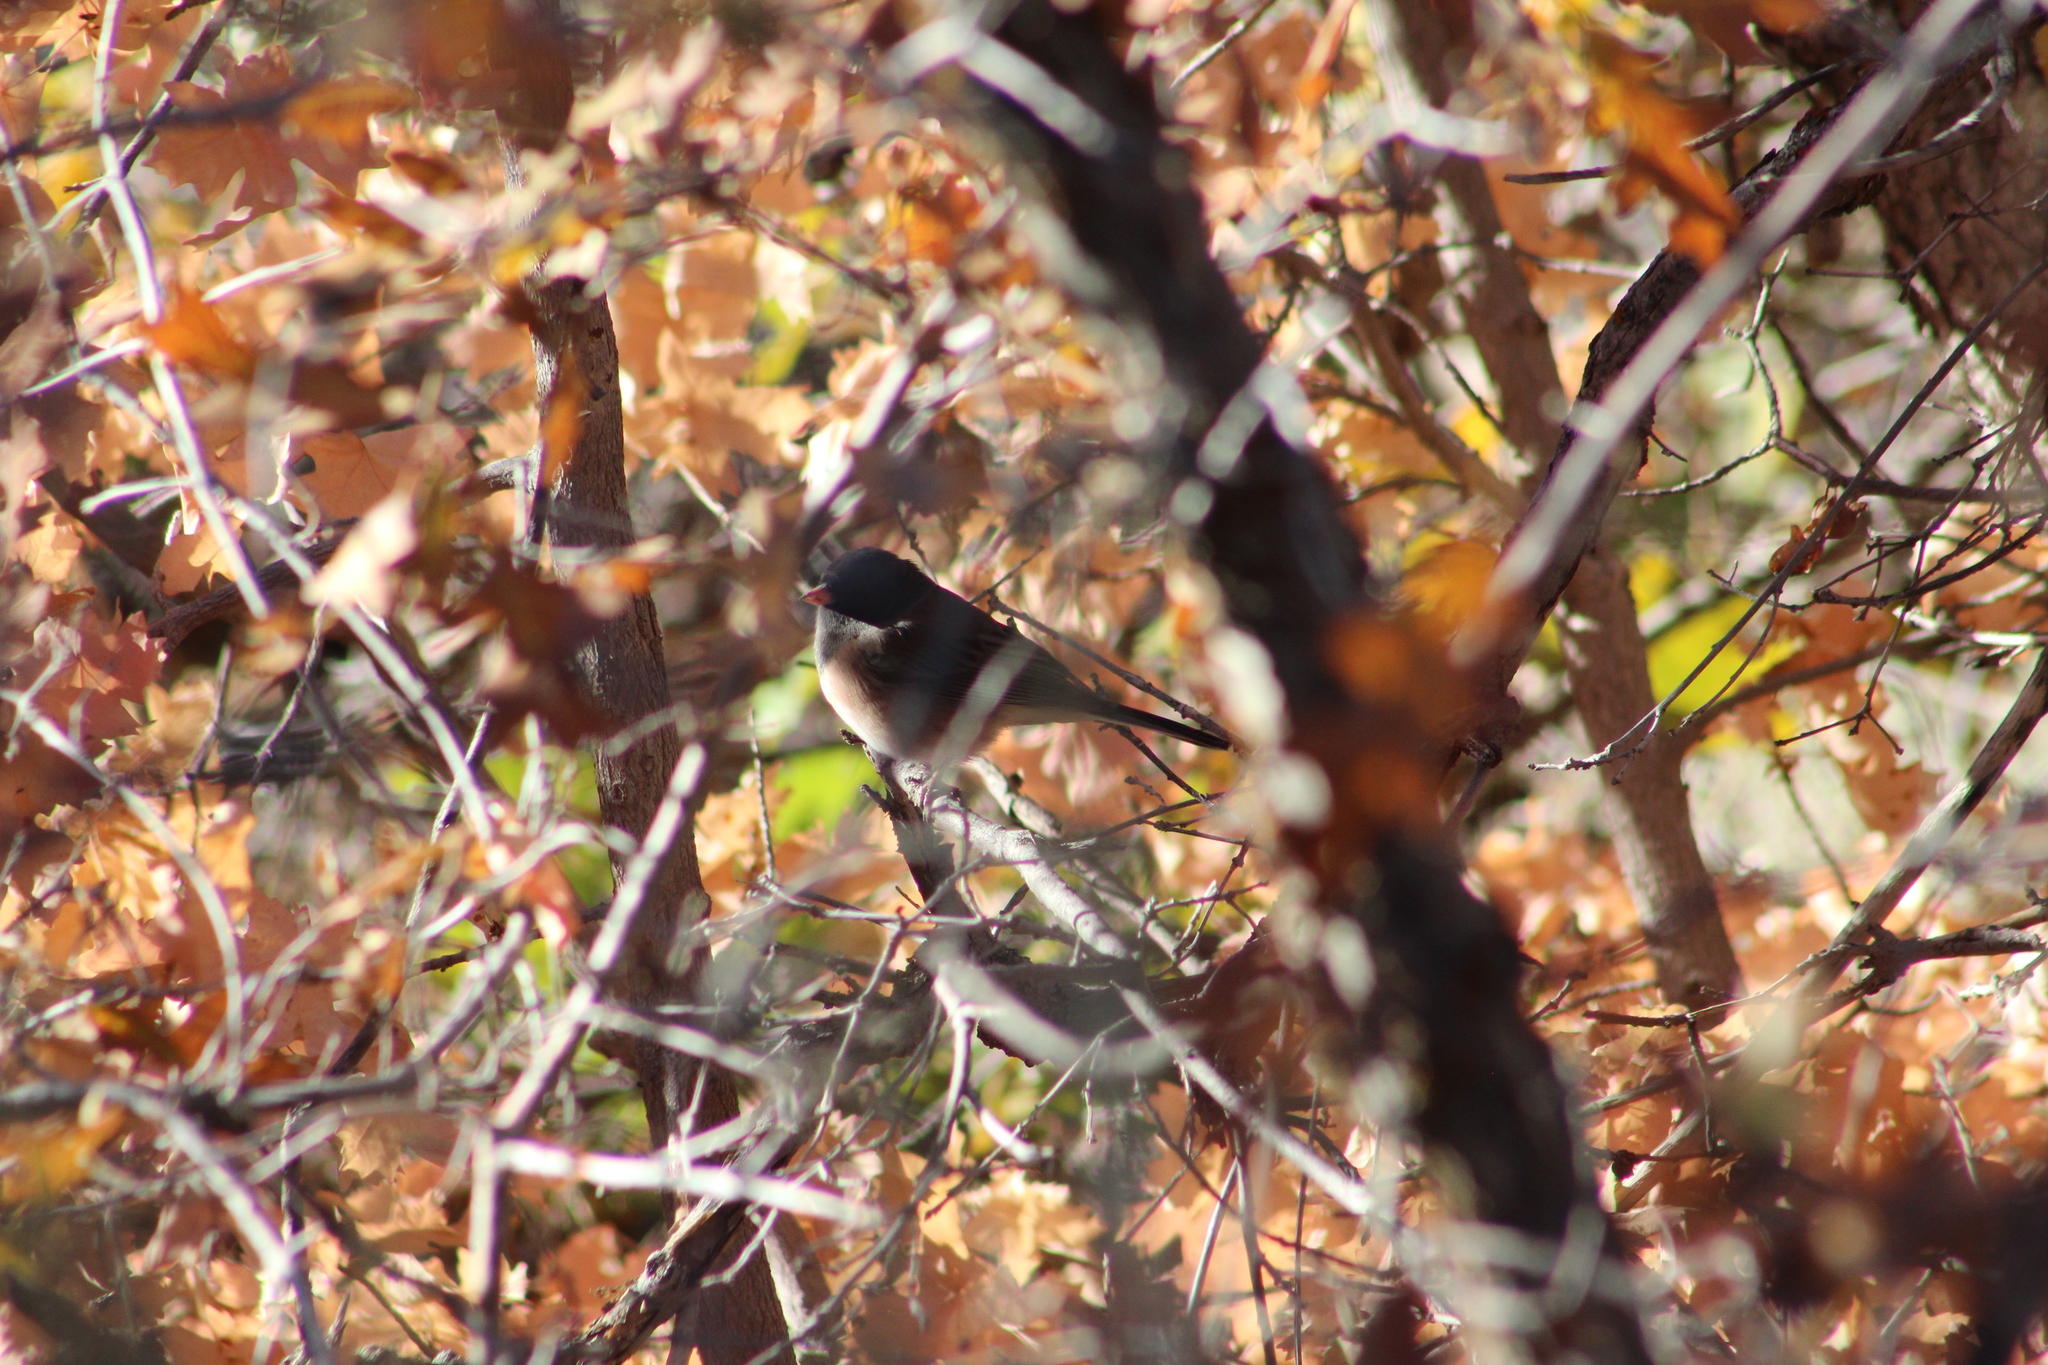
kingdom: Animalia
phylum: Chordata
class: Aves
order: Passeriformes
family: Passerellidae
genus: Junco
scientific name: Junco hyemalis
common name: Dark-eyed junco
